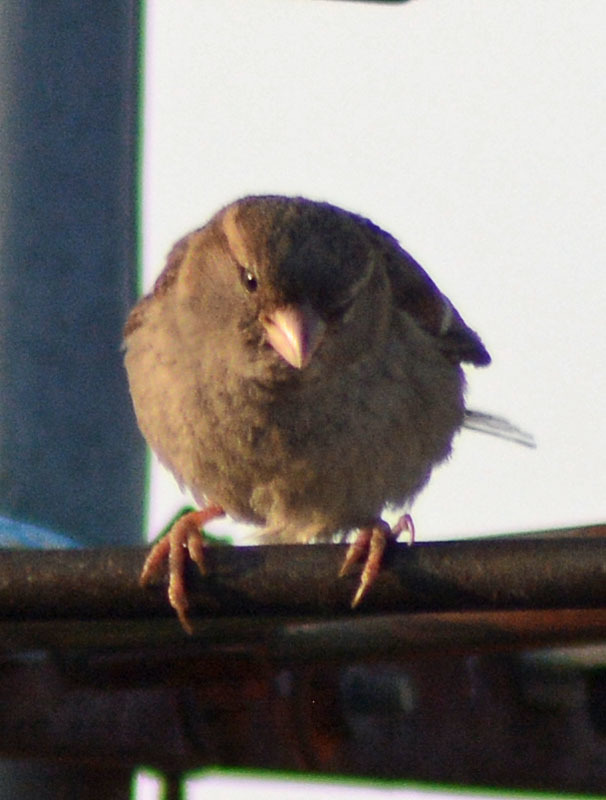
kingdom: Animalia
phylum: Chordata
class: Aves
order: Passeriformes
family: Passeridae
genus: Passer
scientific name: Passer domesticus
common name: House sparrow
